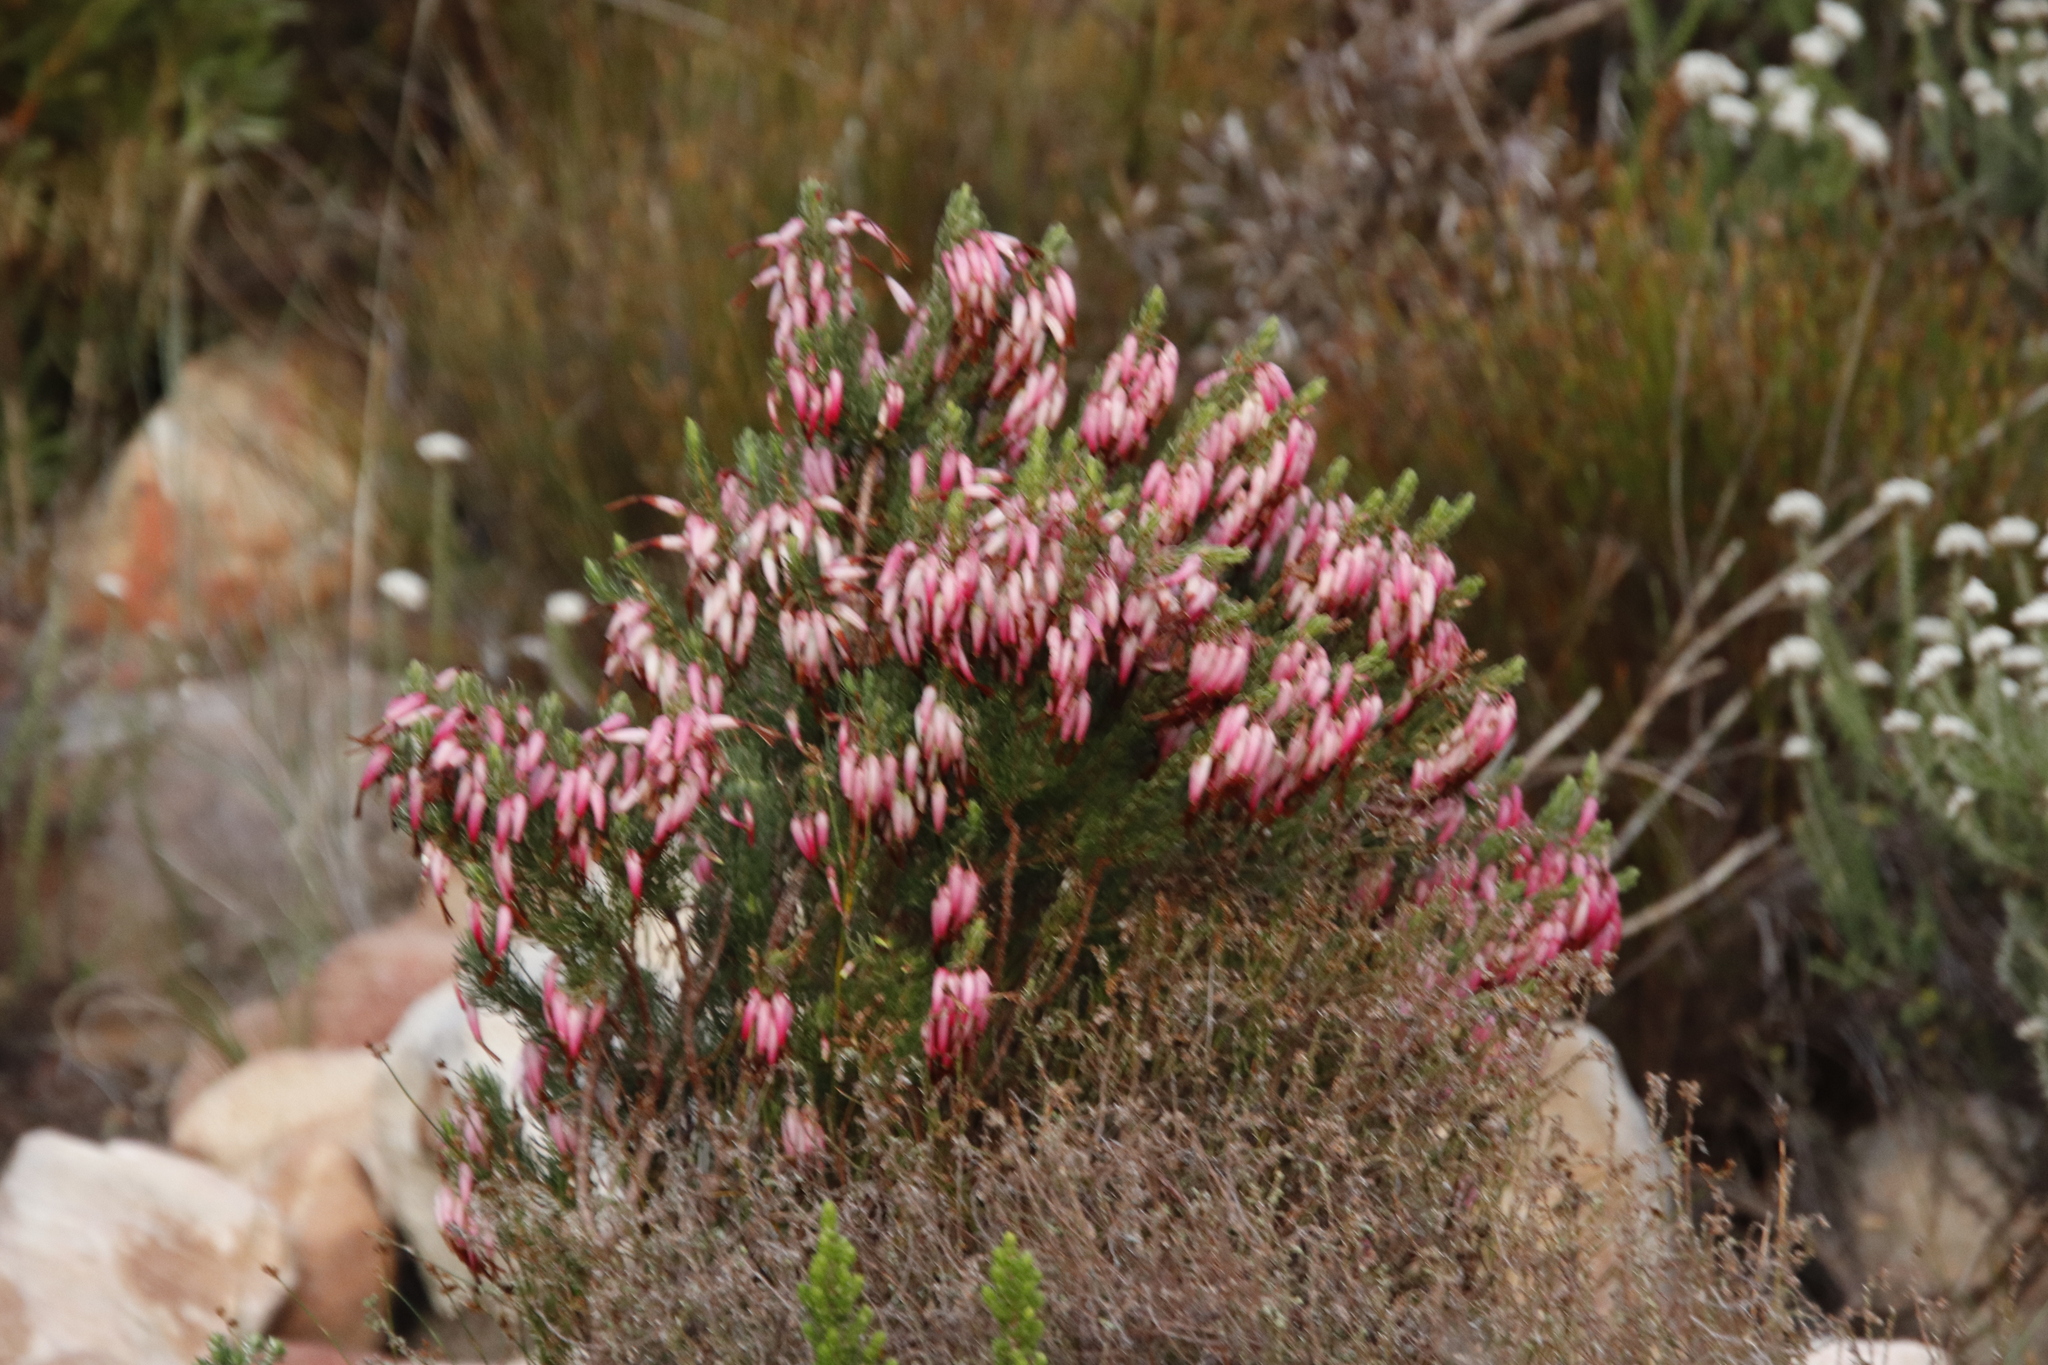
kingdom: Plantae
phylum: Tracheophyta
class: Magnoliopsida
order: Ericales
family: Ericaceae
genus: Erica
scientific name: Erica plukenetii
